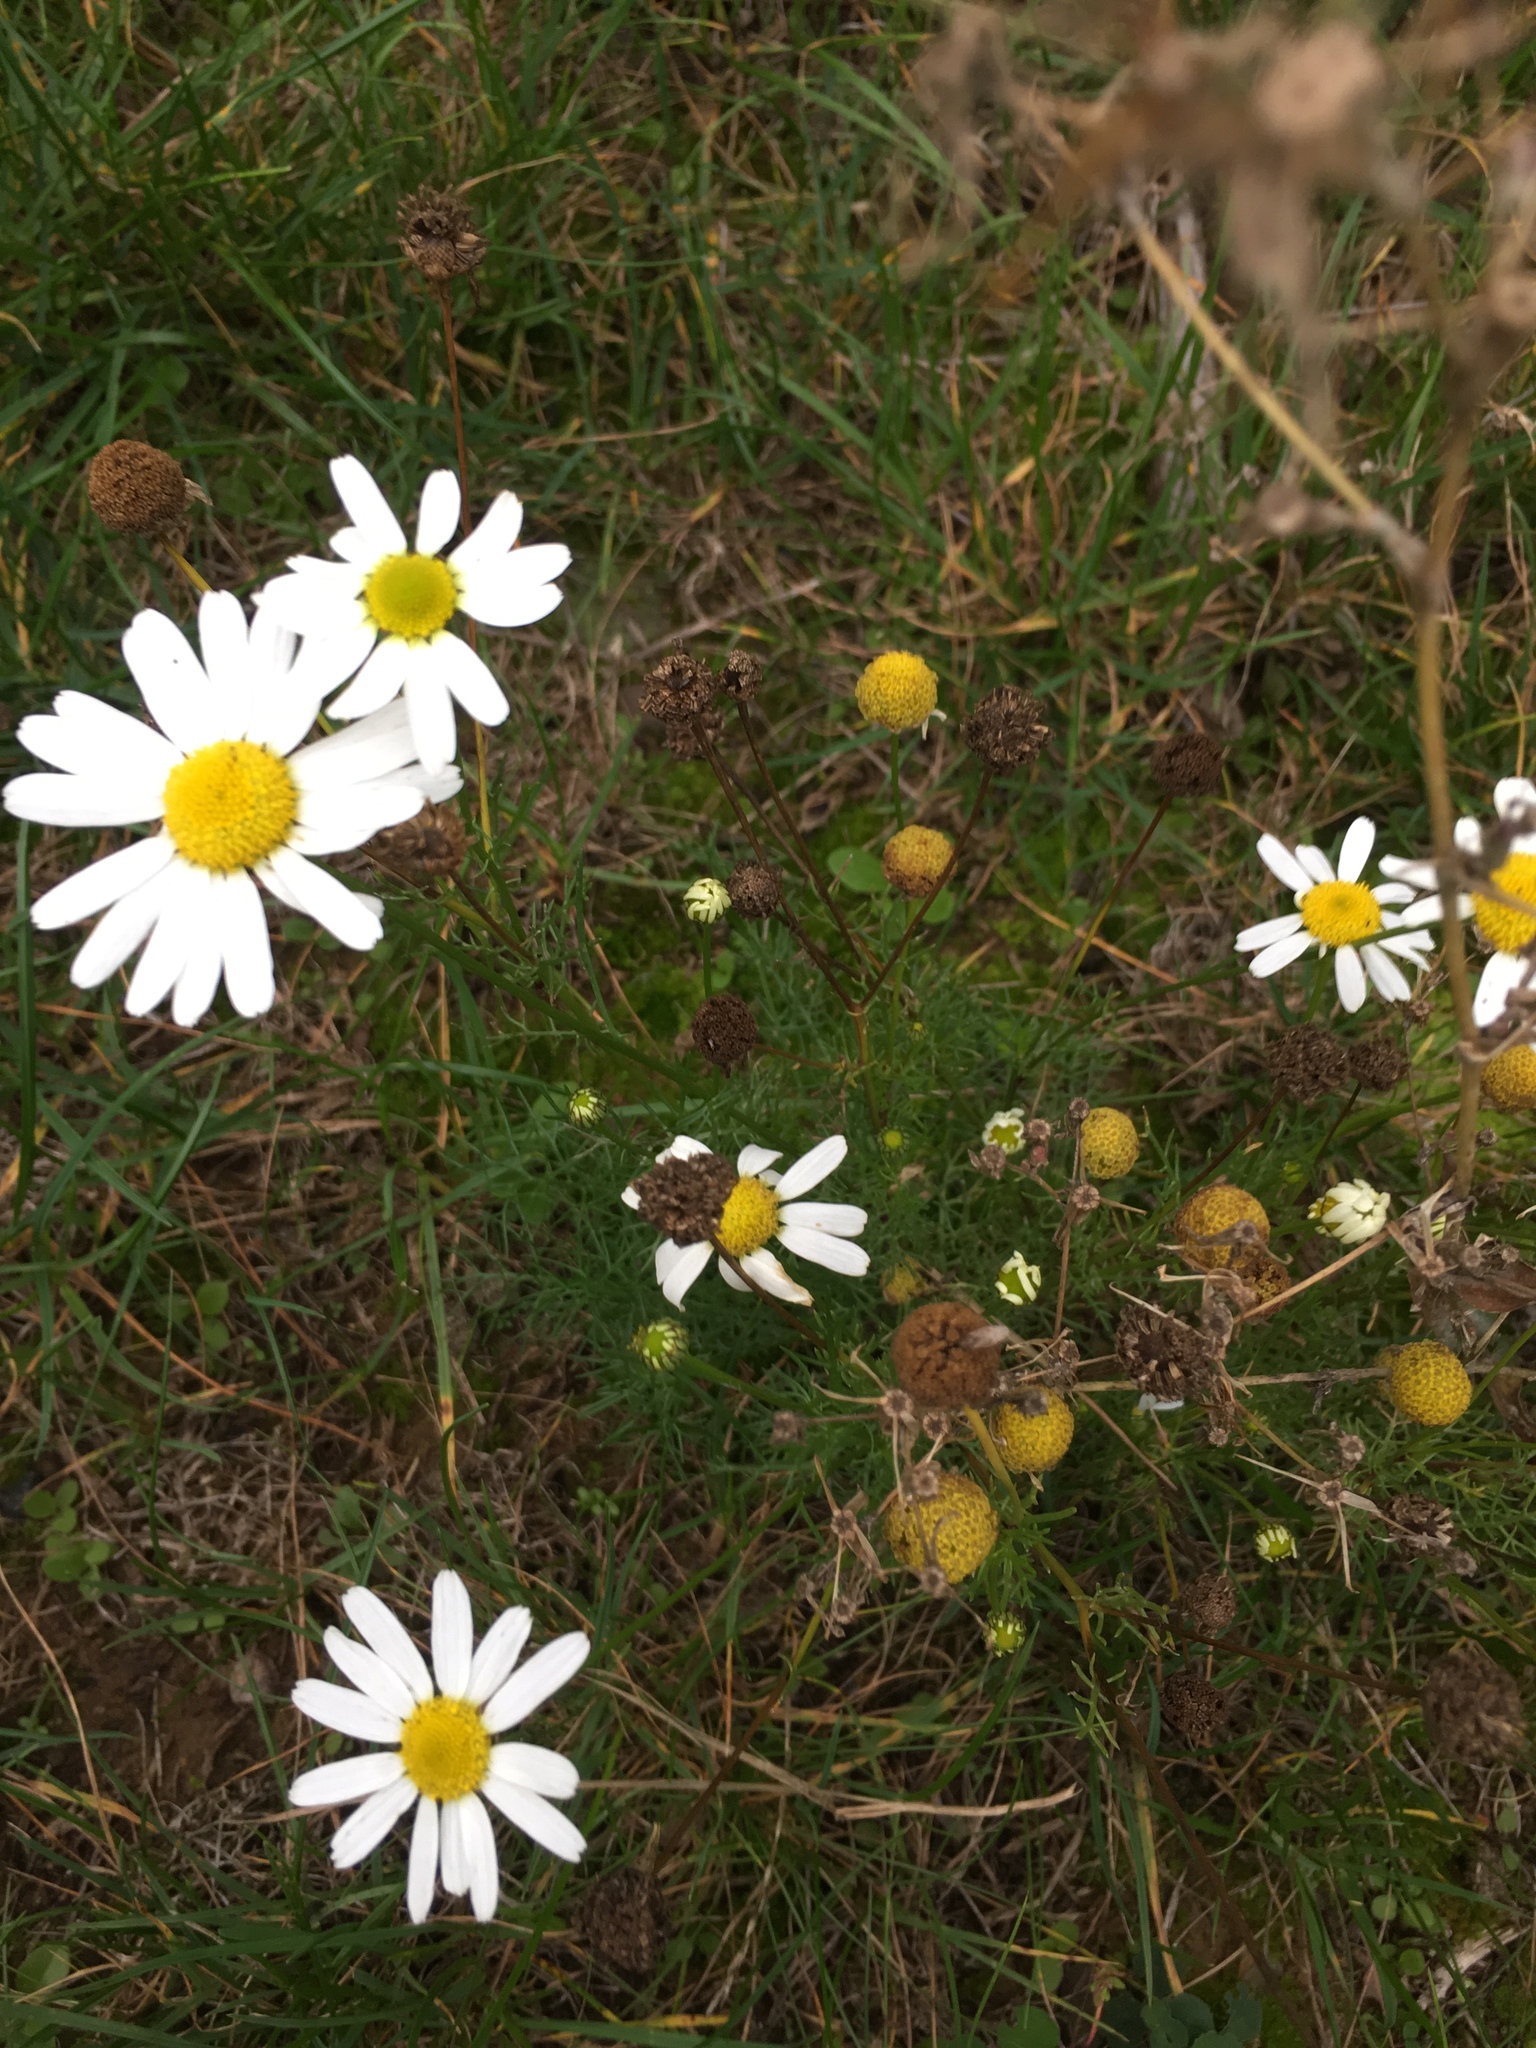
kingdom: Plantae
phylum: Tracheophyta
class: Magnoliopsida
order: Asterales
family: Asteraceae
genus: Tripleurospermum
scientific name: Tripleurospermum inodorum
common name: Scentless mayweed
